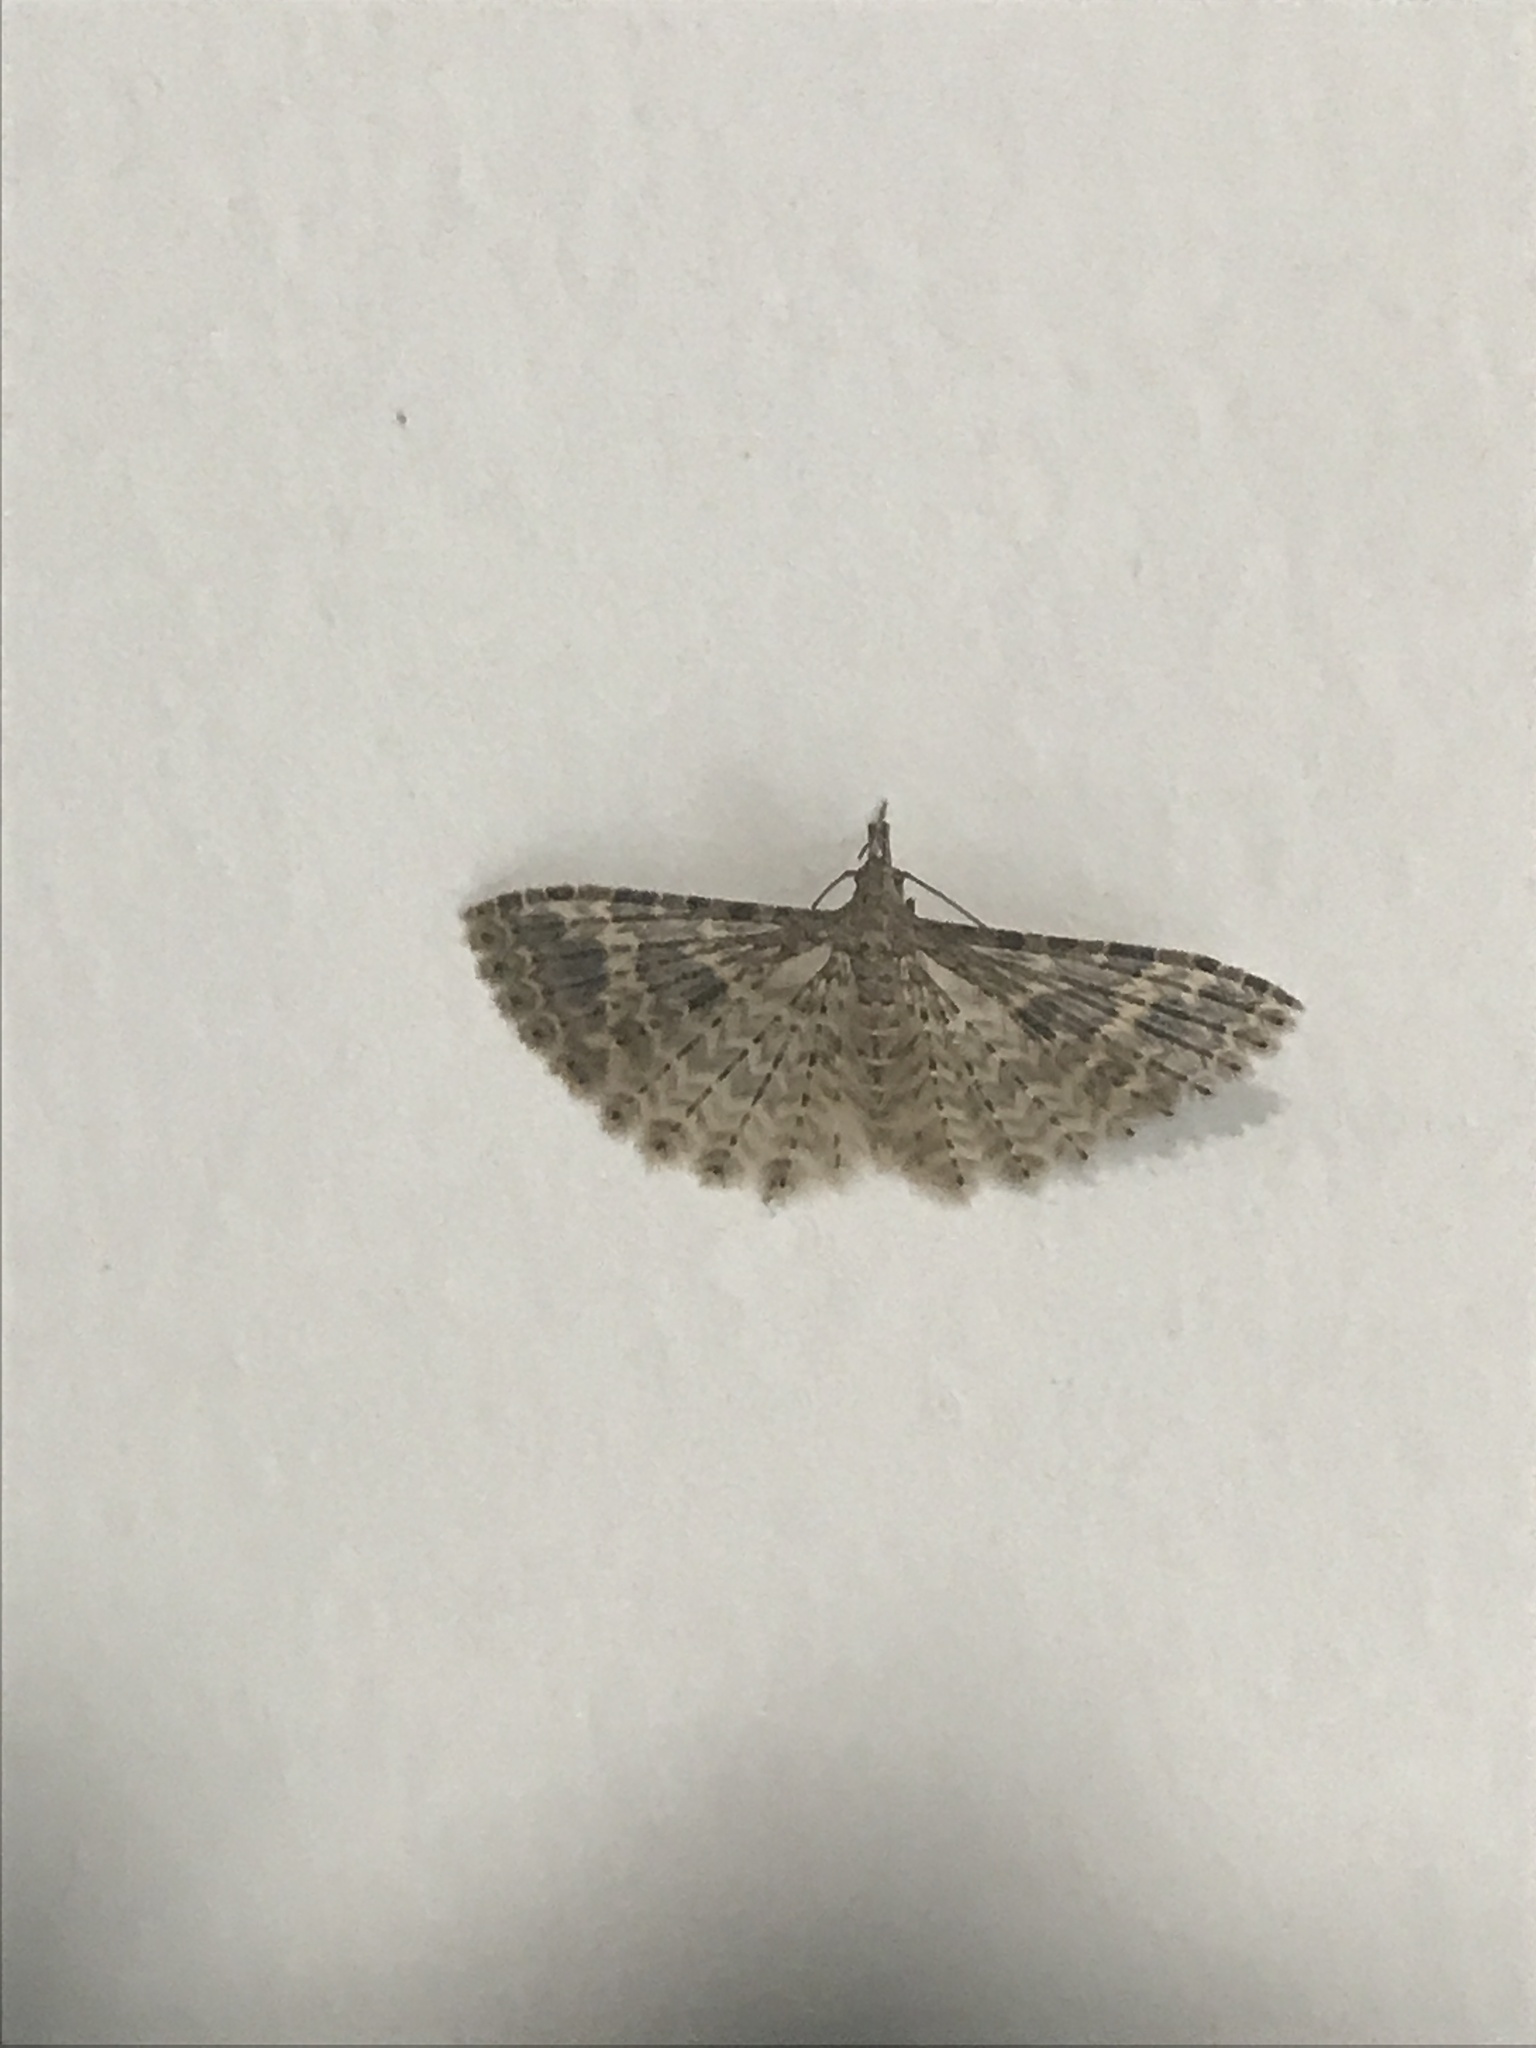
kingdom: Animalia
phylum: Arthropoda
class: Insecta
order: Lepidoptera
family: Alucitidae
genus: Alucita
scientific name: Alucita hexadactyla
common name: Twenty-plume moth
